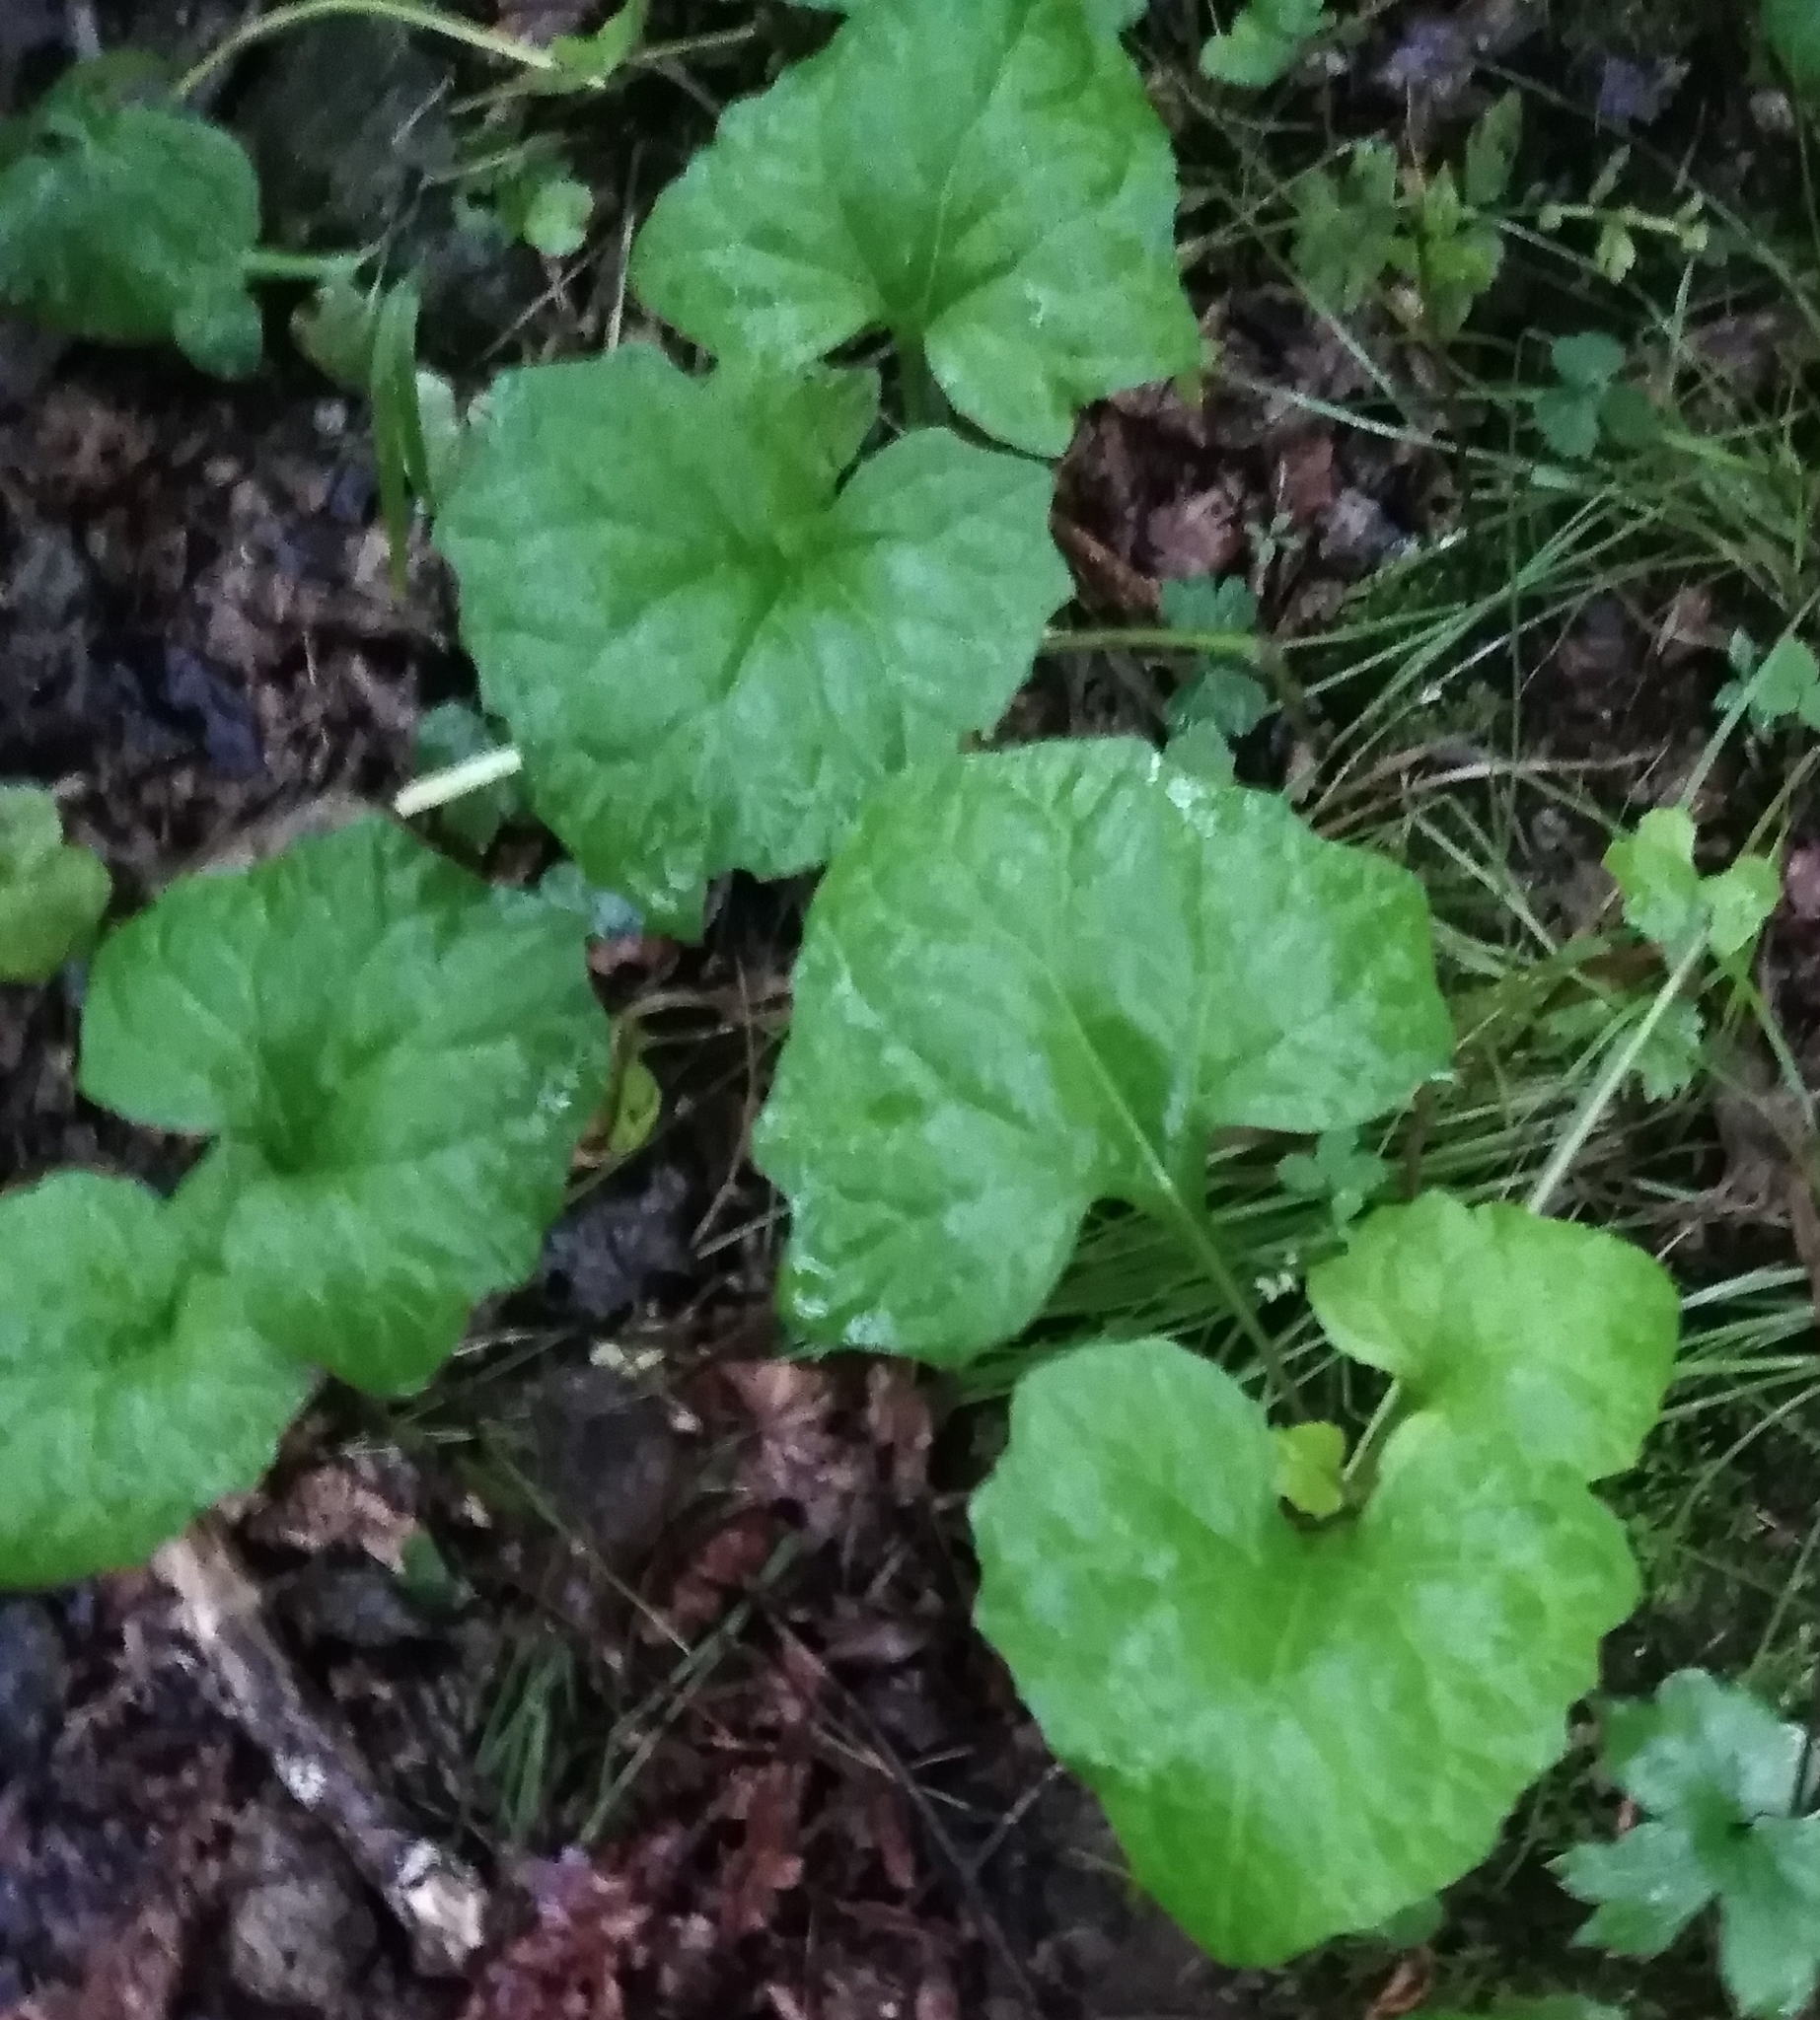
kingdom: Plantae
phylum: Tracheophyta
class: Magnoliopsida
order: Asterales
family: Asteraceae
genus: Adenocaulon
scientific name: Adenocaulon himalaicum
